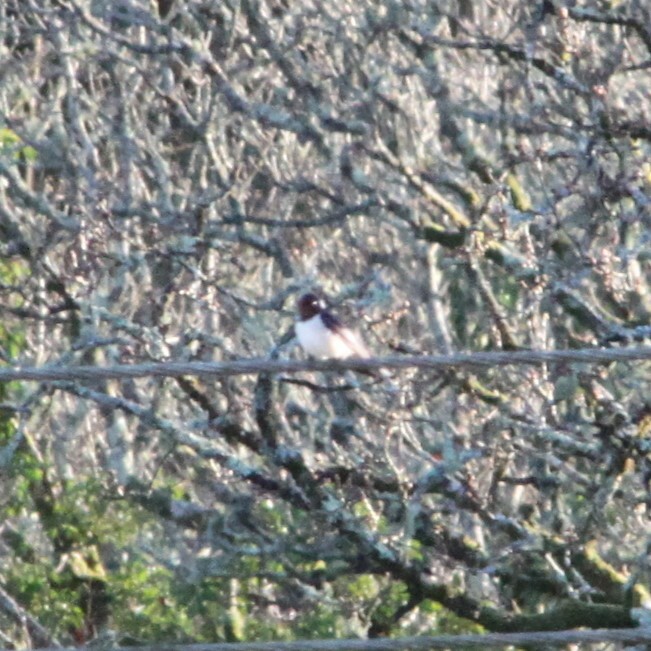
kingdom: Animalia
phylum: Chordata
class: Aves
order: Passeriformes
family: Hirundinidae
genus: Hirundo
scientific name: Hirundo rustica
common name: Barn swallow
